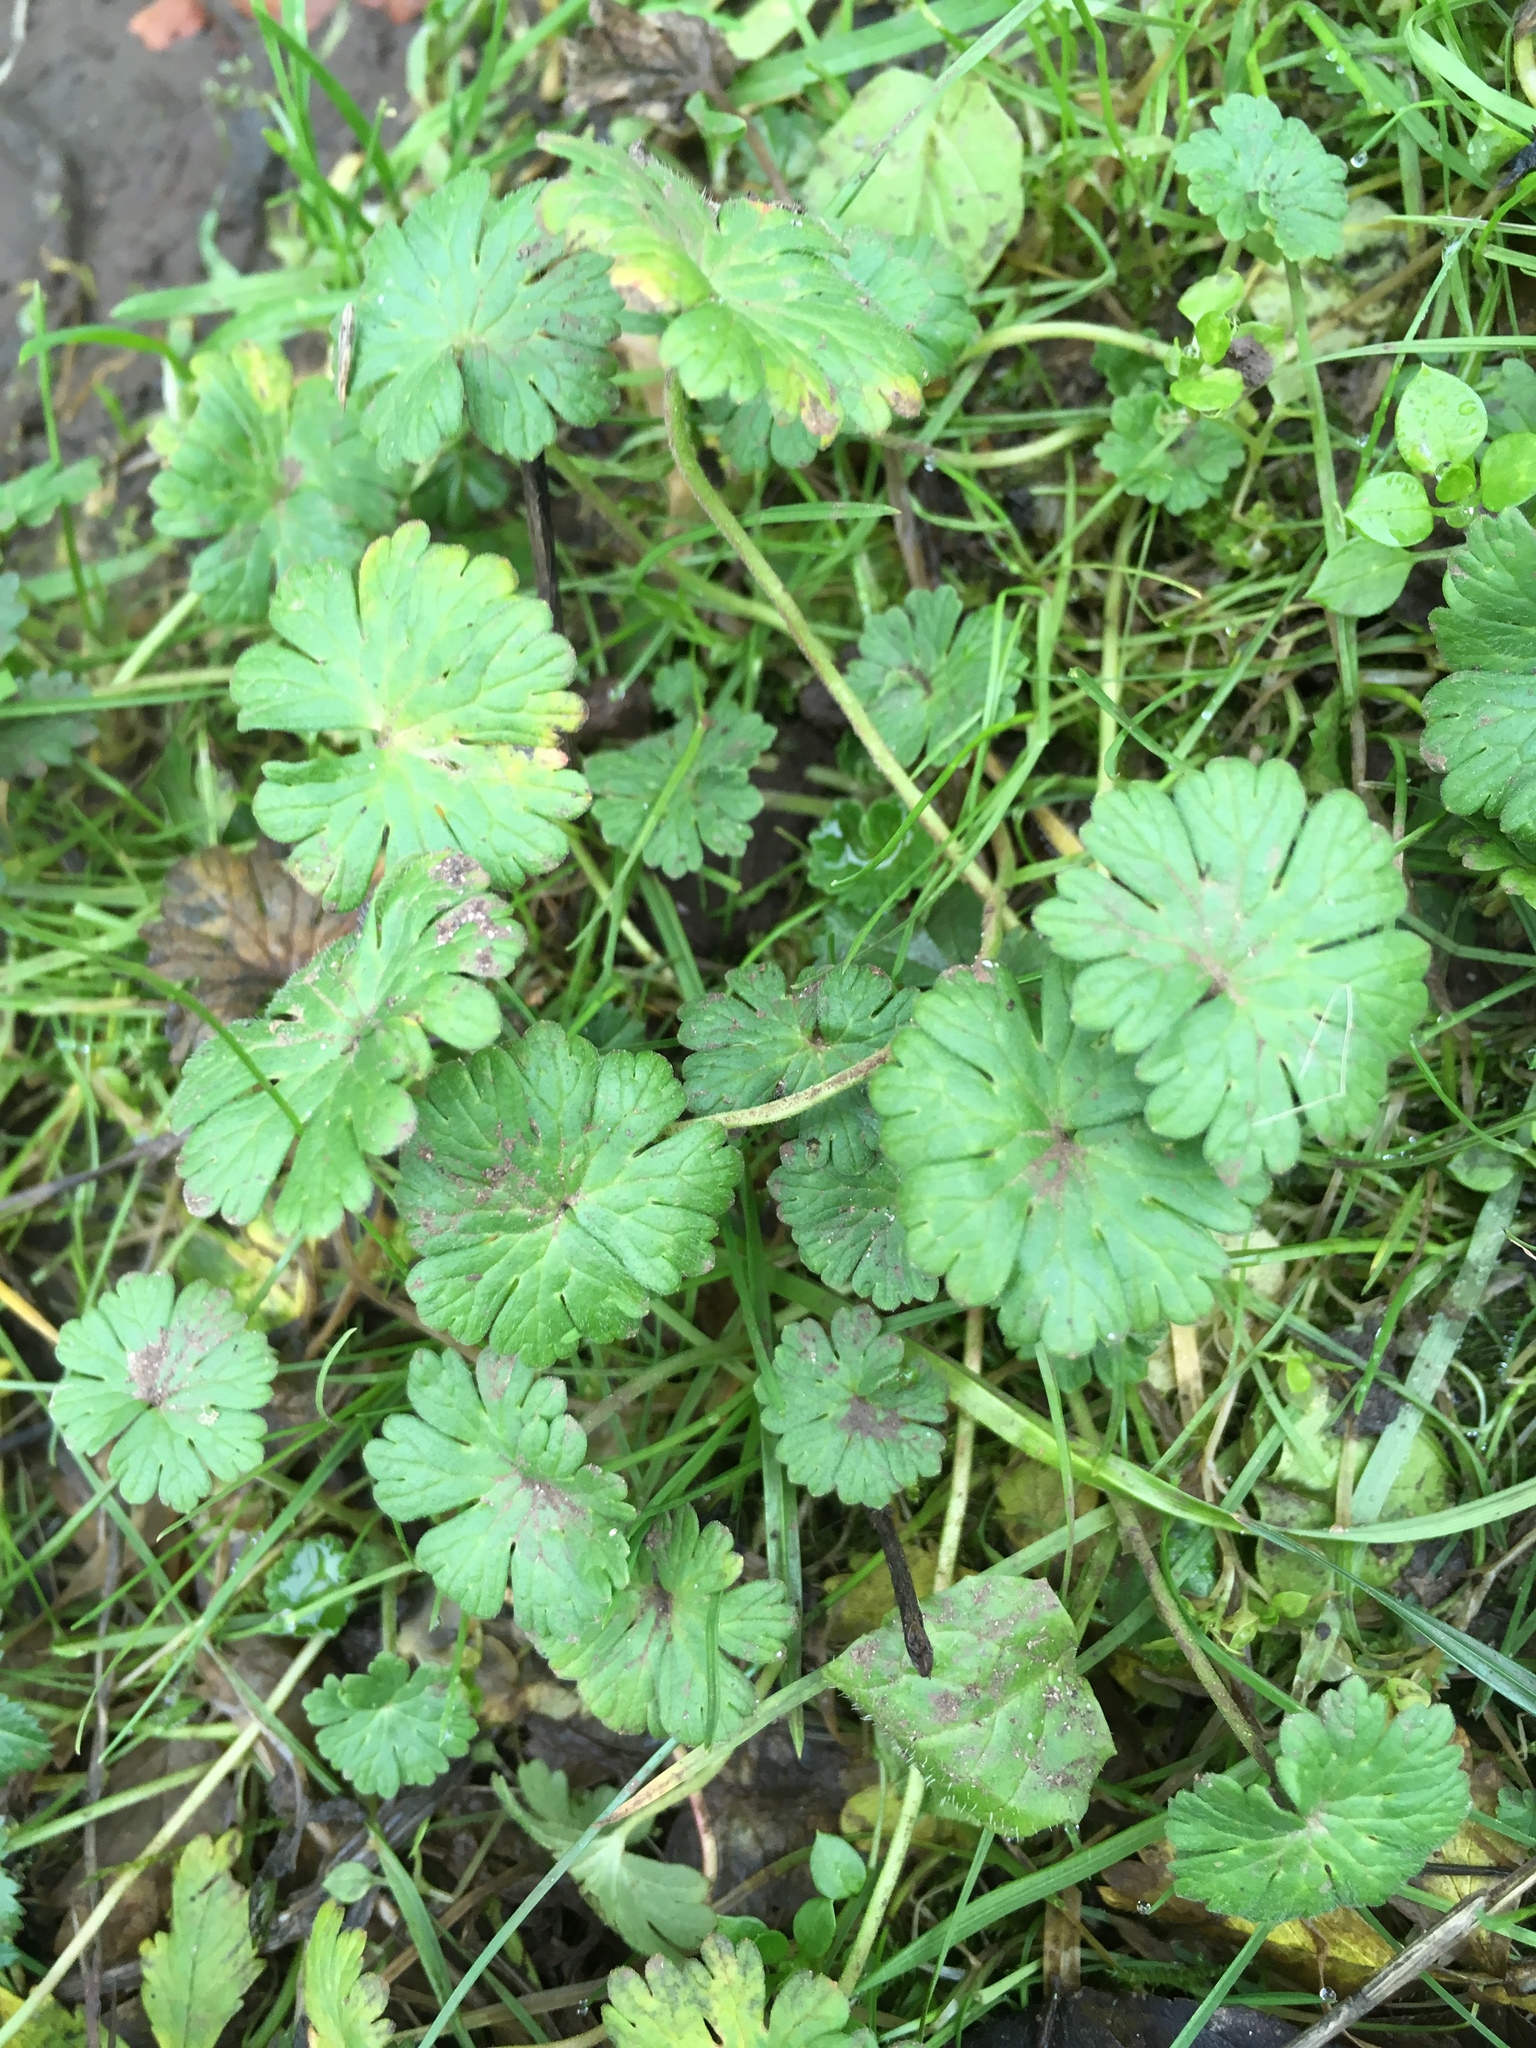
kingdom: Plantae
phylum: Tracheophyta
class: Magnoliopsida
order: Geraniales
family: Geraniaceae
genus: Geranium
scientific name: Geranium molle
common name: Dove's-foot crane's-bill
